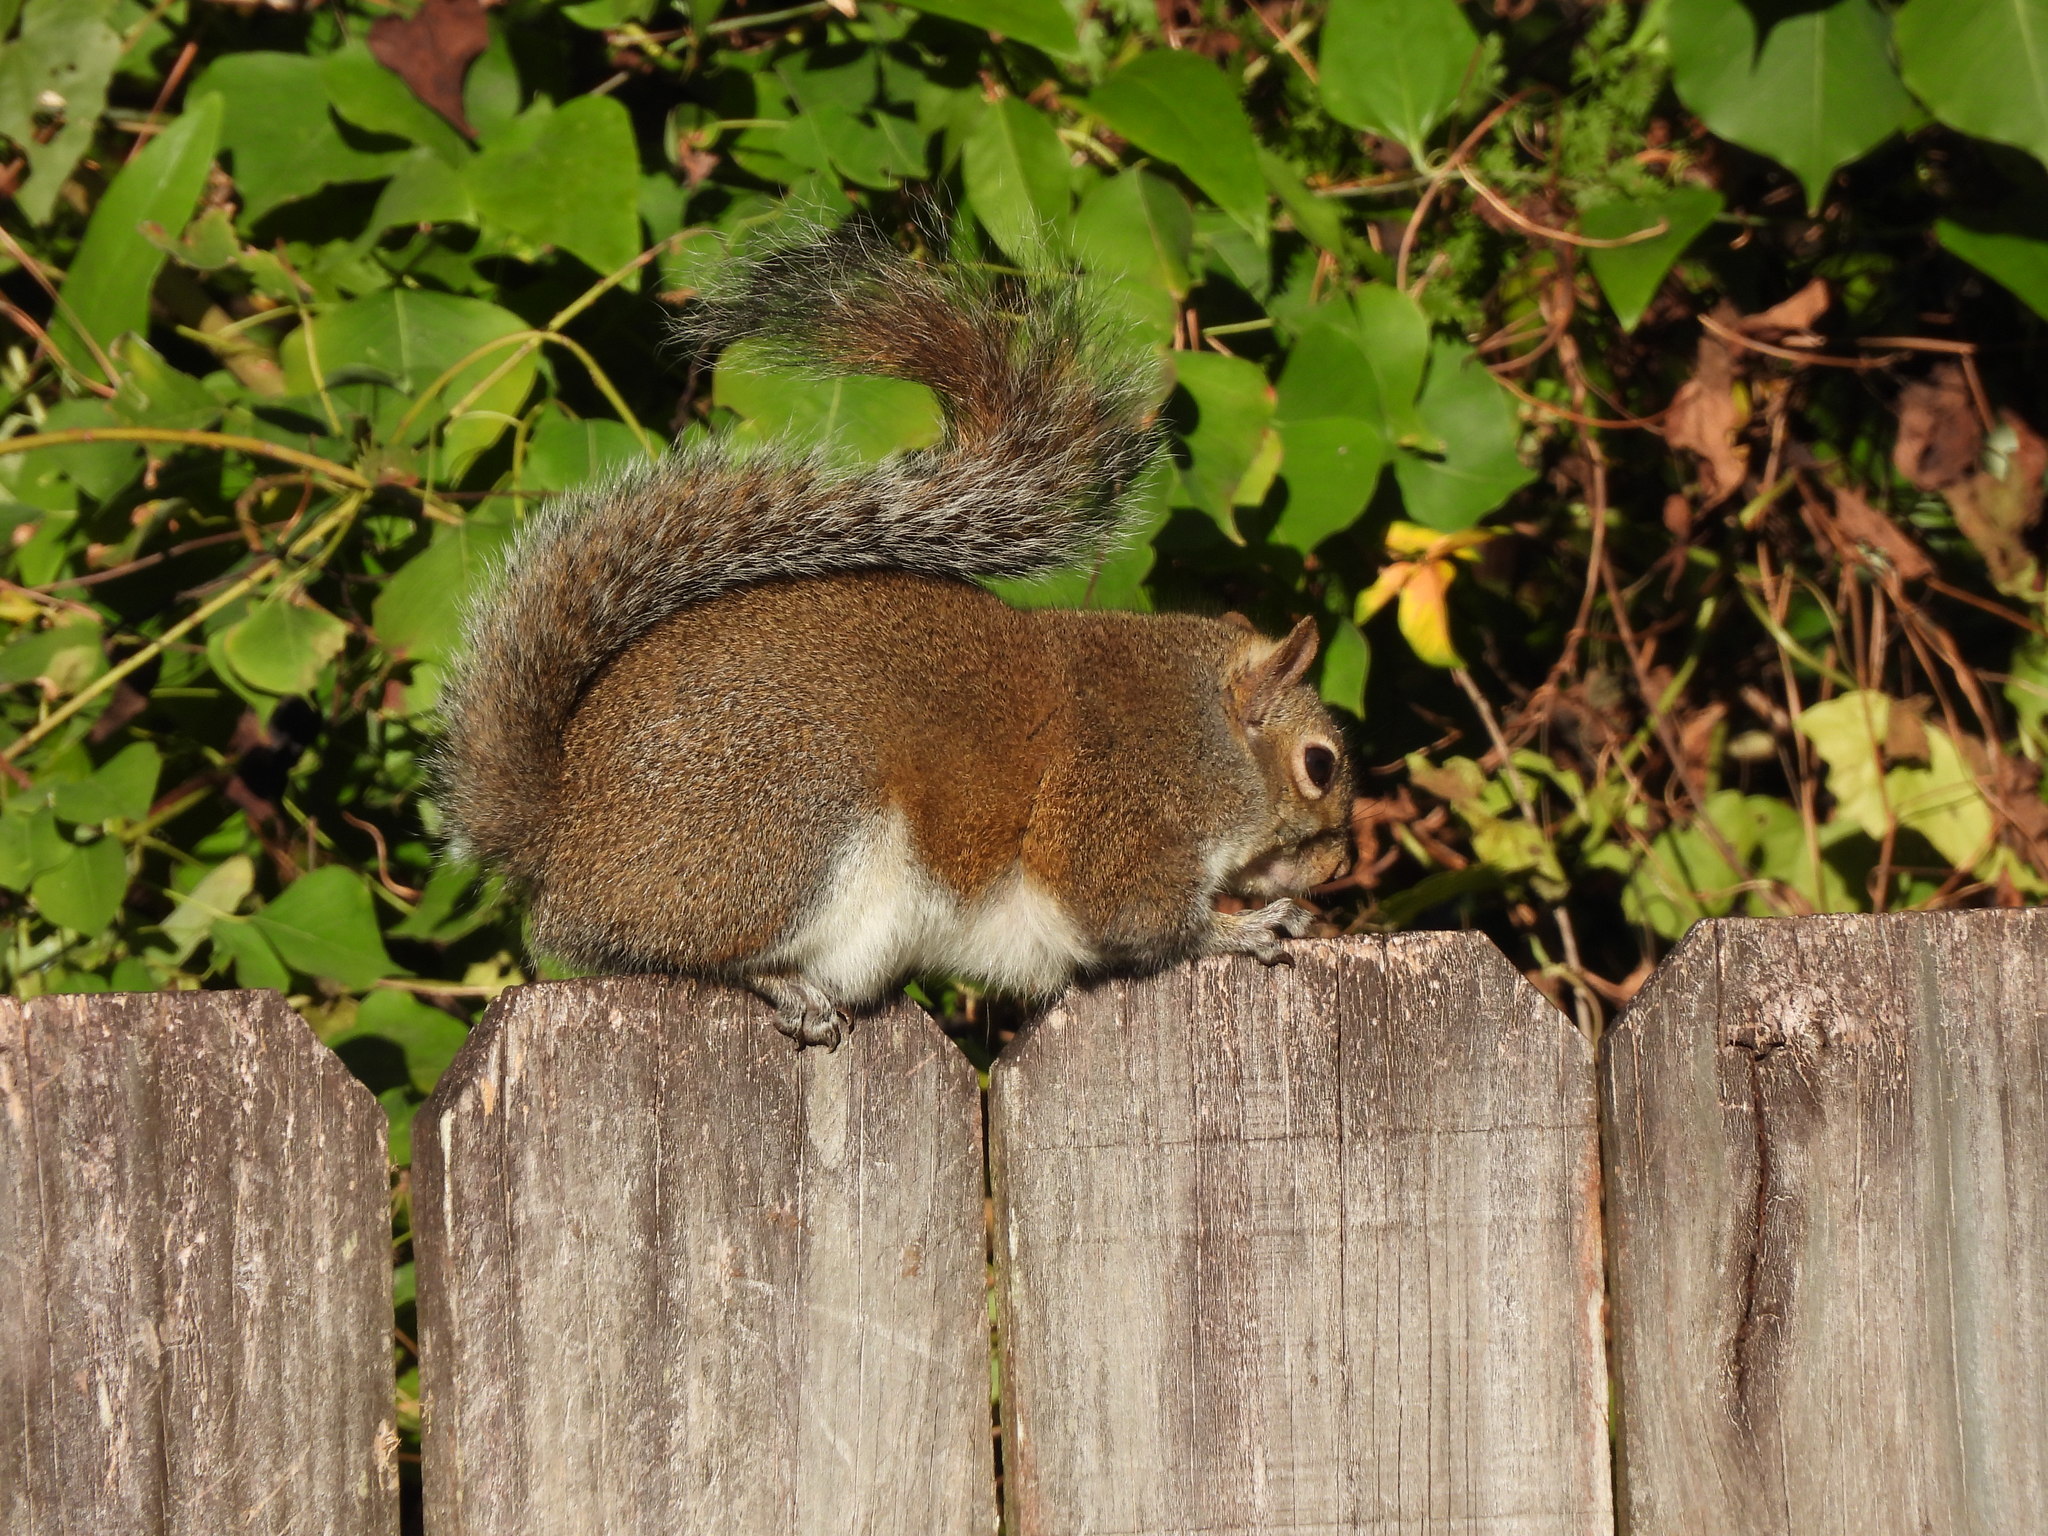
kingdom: Animalia
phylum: Chordata
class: Mammalia
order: Rodentia
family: Sciuridae
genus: Sciurus
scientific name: Sciurus carolinensis
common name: Eastern gray squirrel
